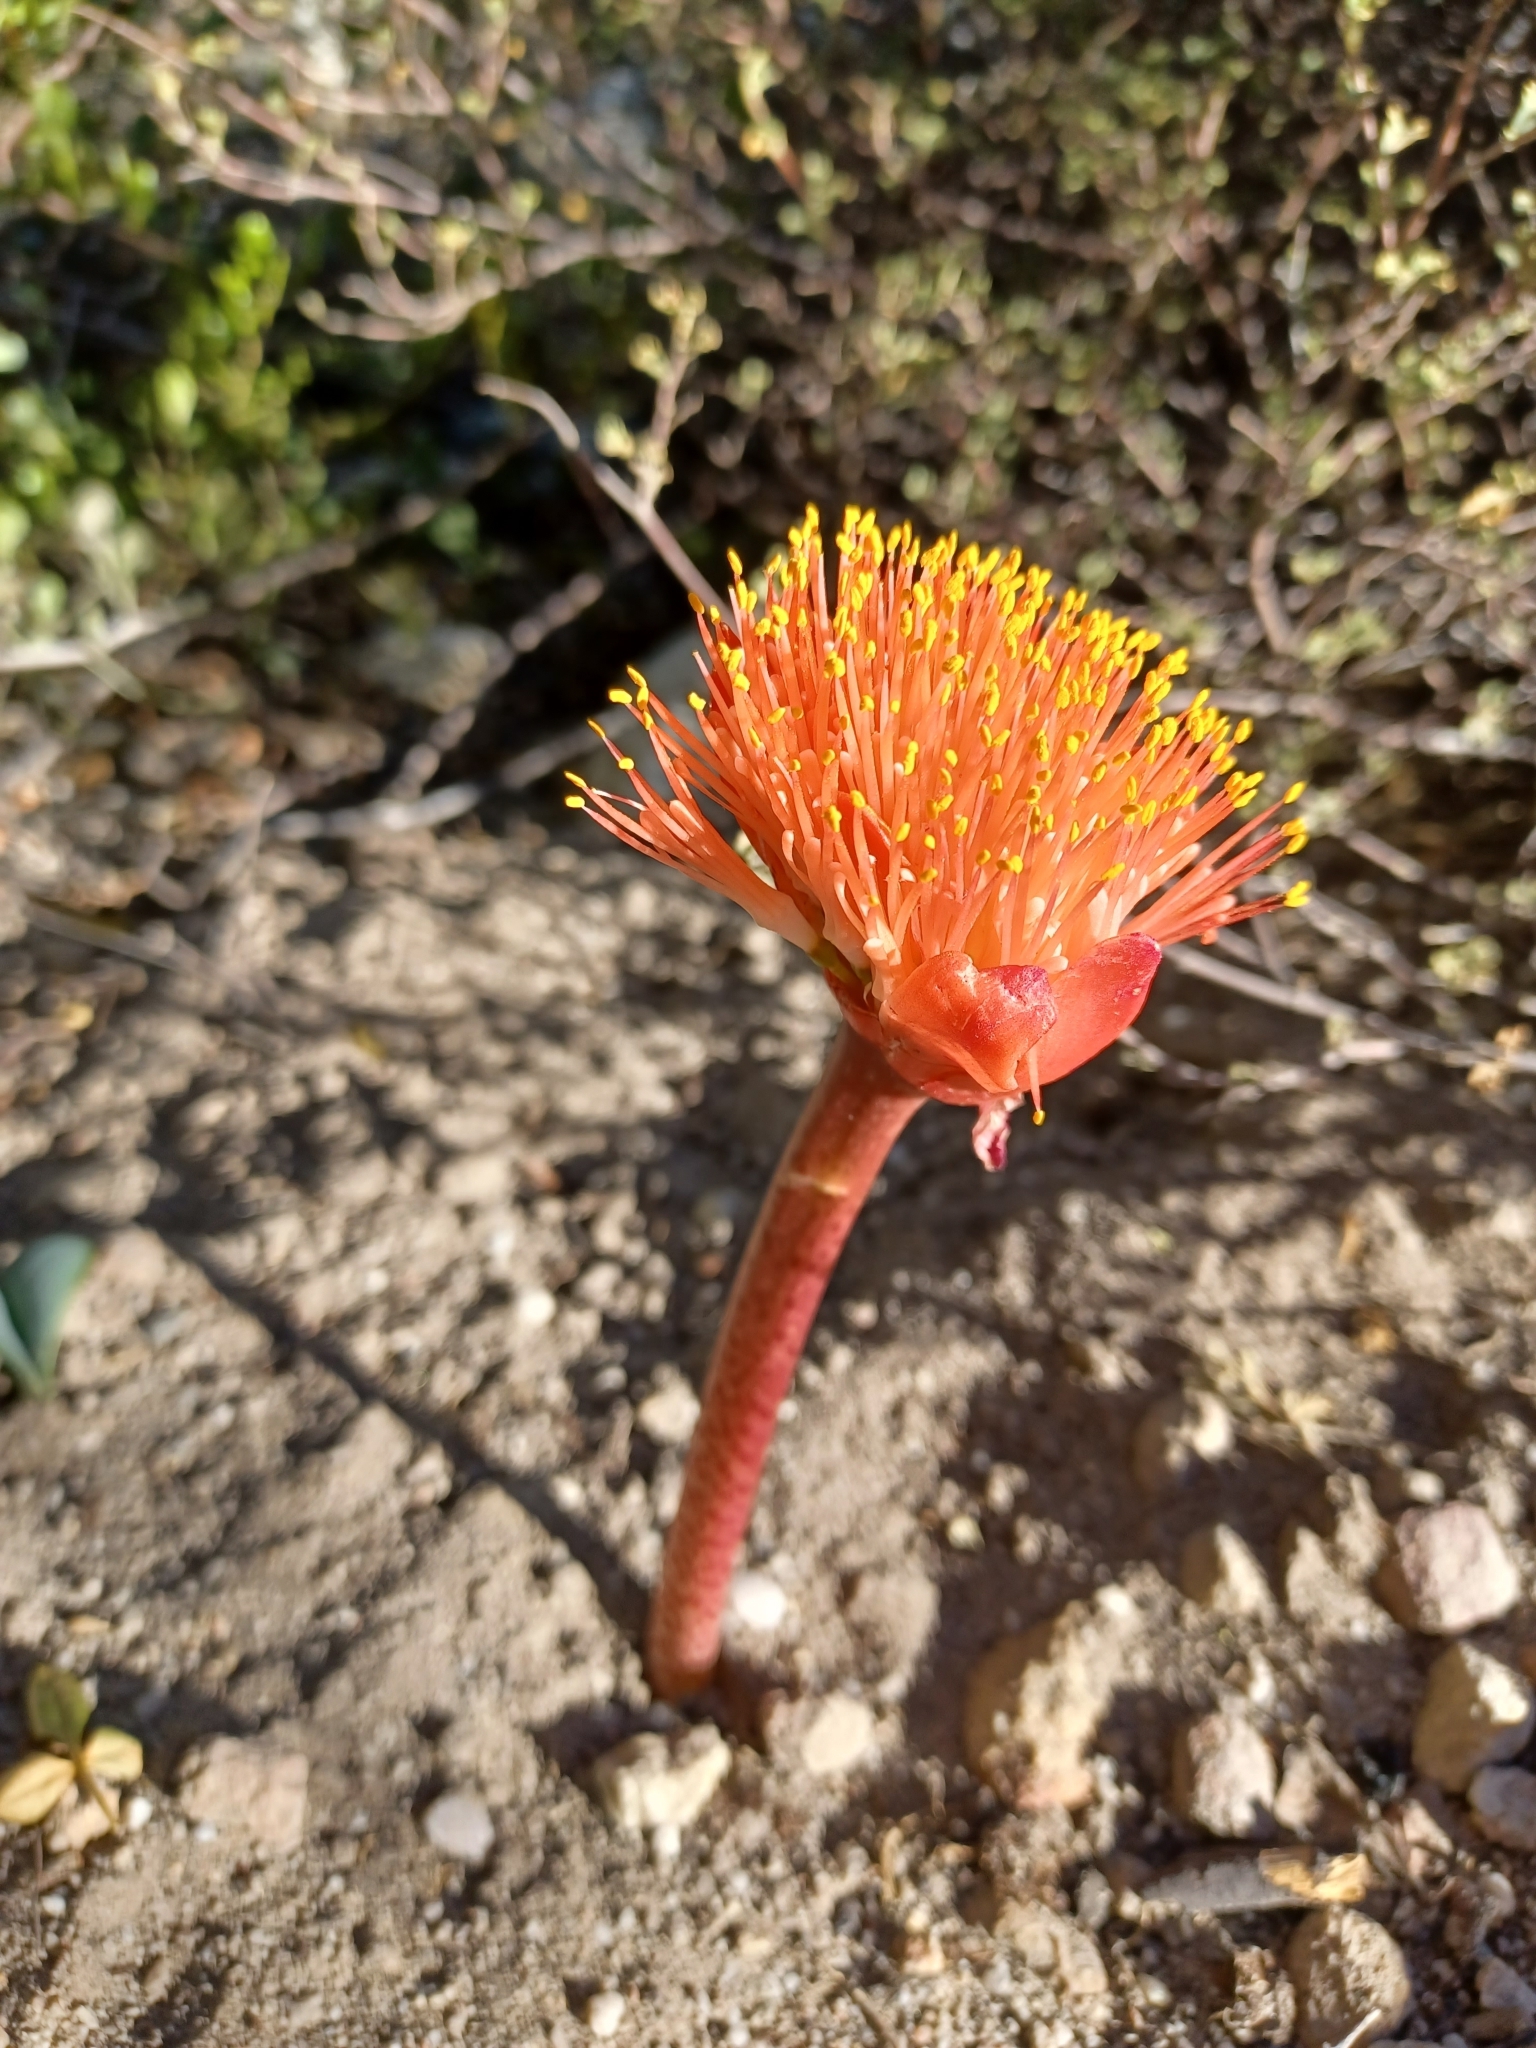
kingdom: Plantae
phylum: Tracheophyta
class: Liliopsida
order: Asparagales
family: Amaryllidaceae
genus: Haemanthus
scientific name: Haemanthus coccineus
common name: Cape-tulip
